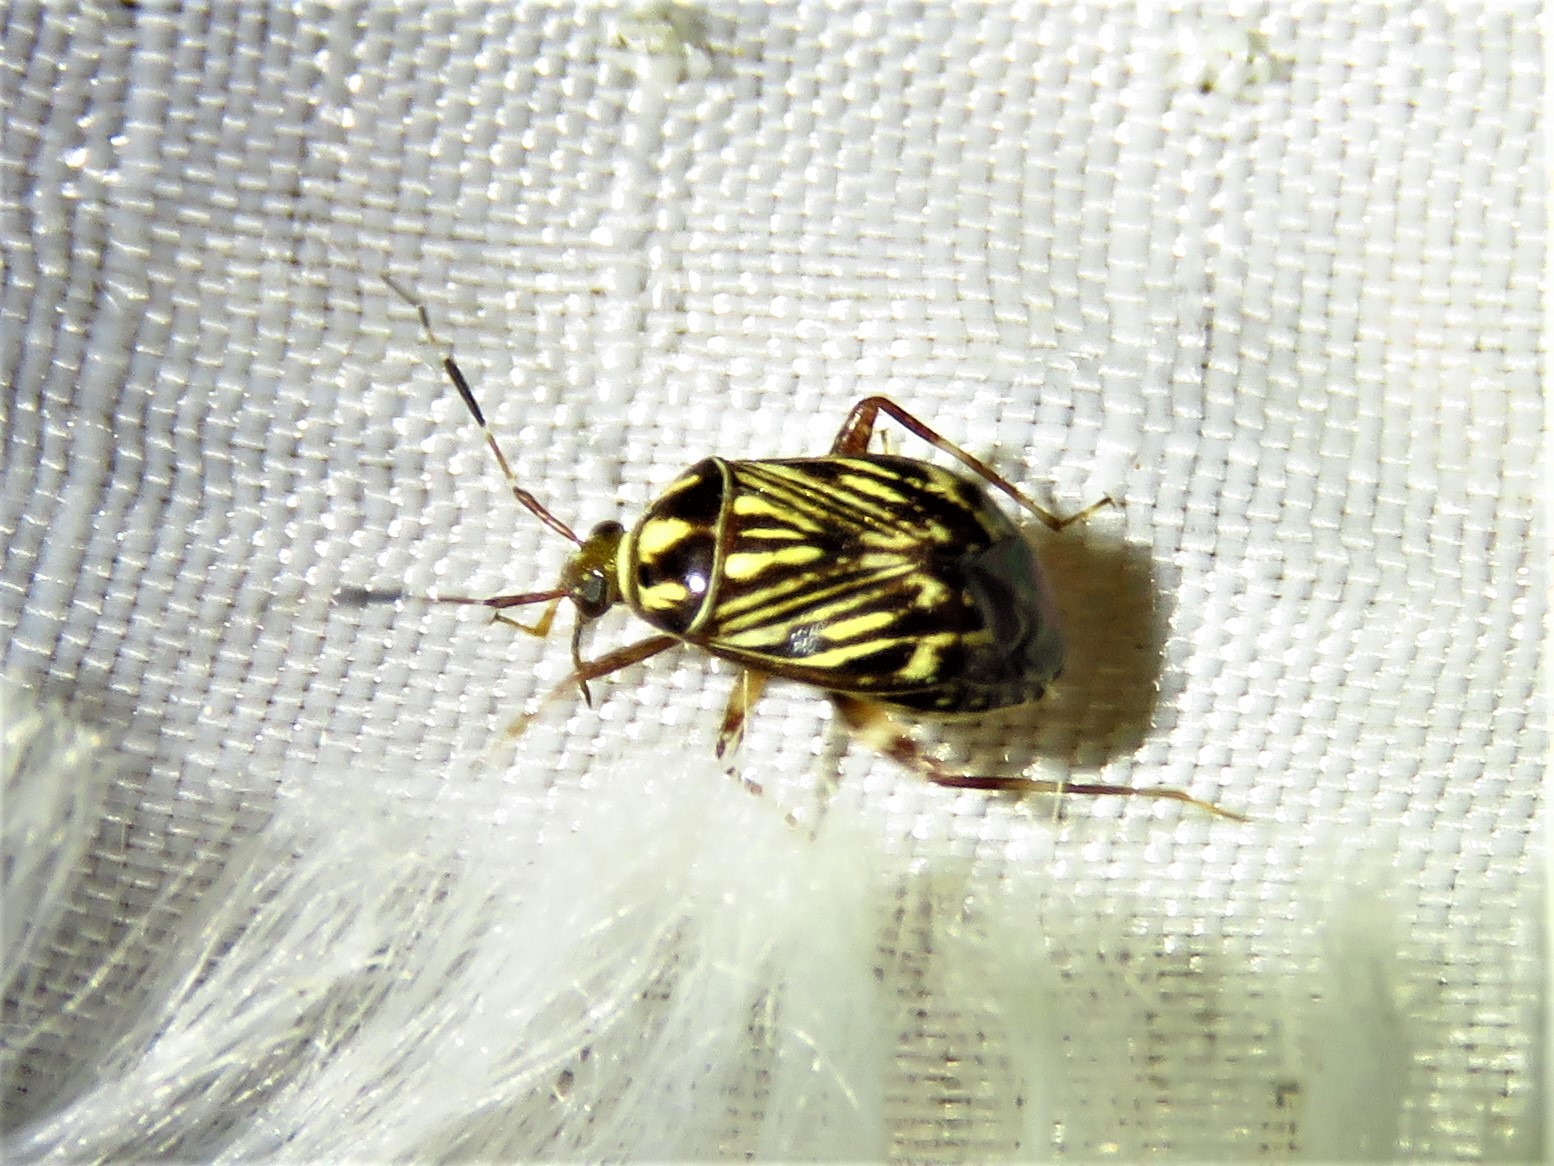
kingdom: Animalia
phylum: Arthropoda
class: Insecta
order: Hemiptera
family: Miridae
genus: Taedia
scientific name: Taedia virgulata
